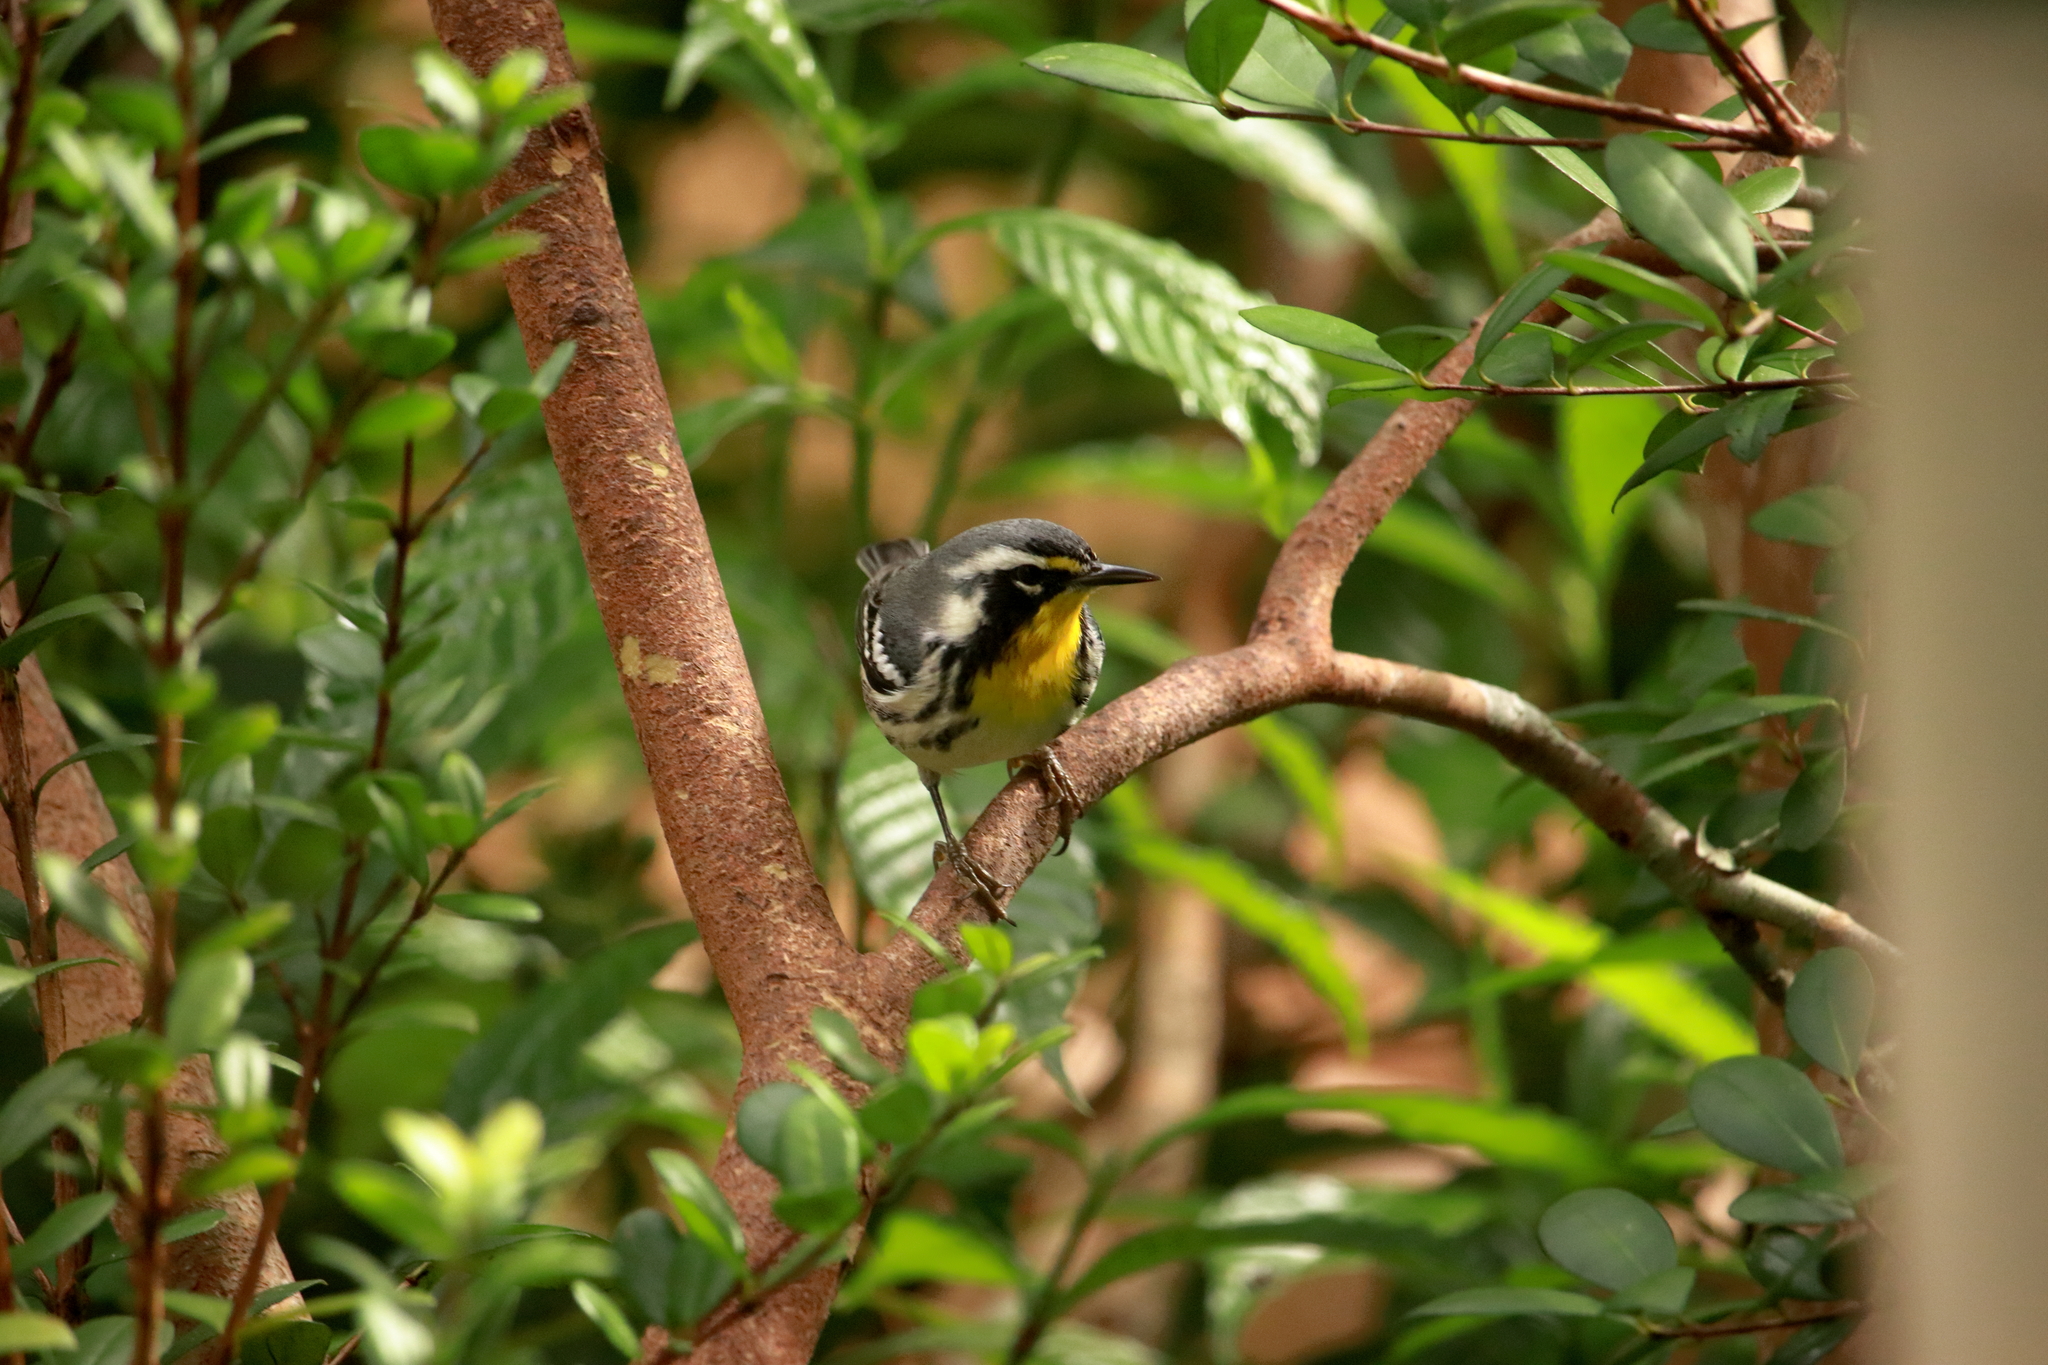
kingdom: Animalia
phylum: Chordata
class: Aves
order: Passeriformes
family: Parulidae
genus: Setophaga
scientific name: Setophaga dominica
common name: Yellow-throated warbler
